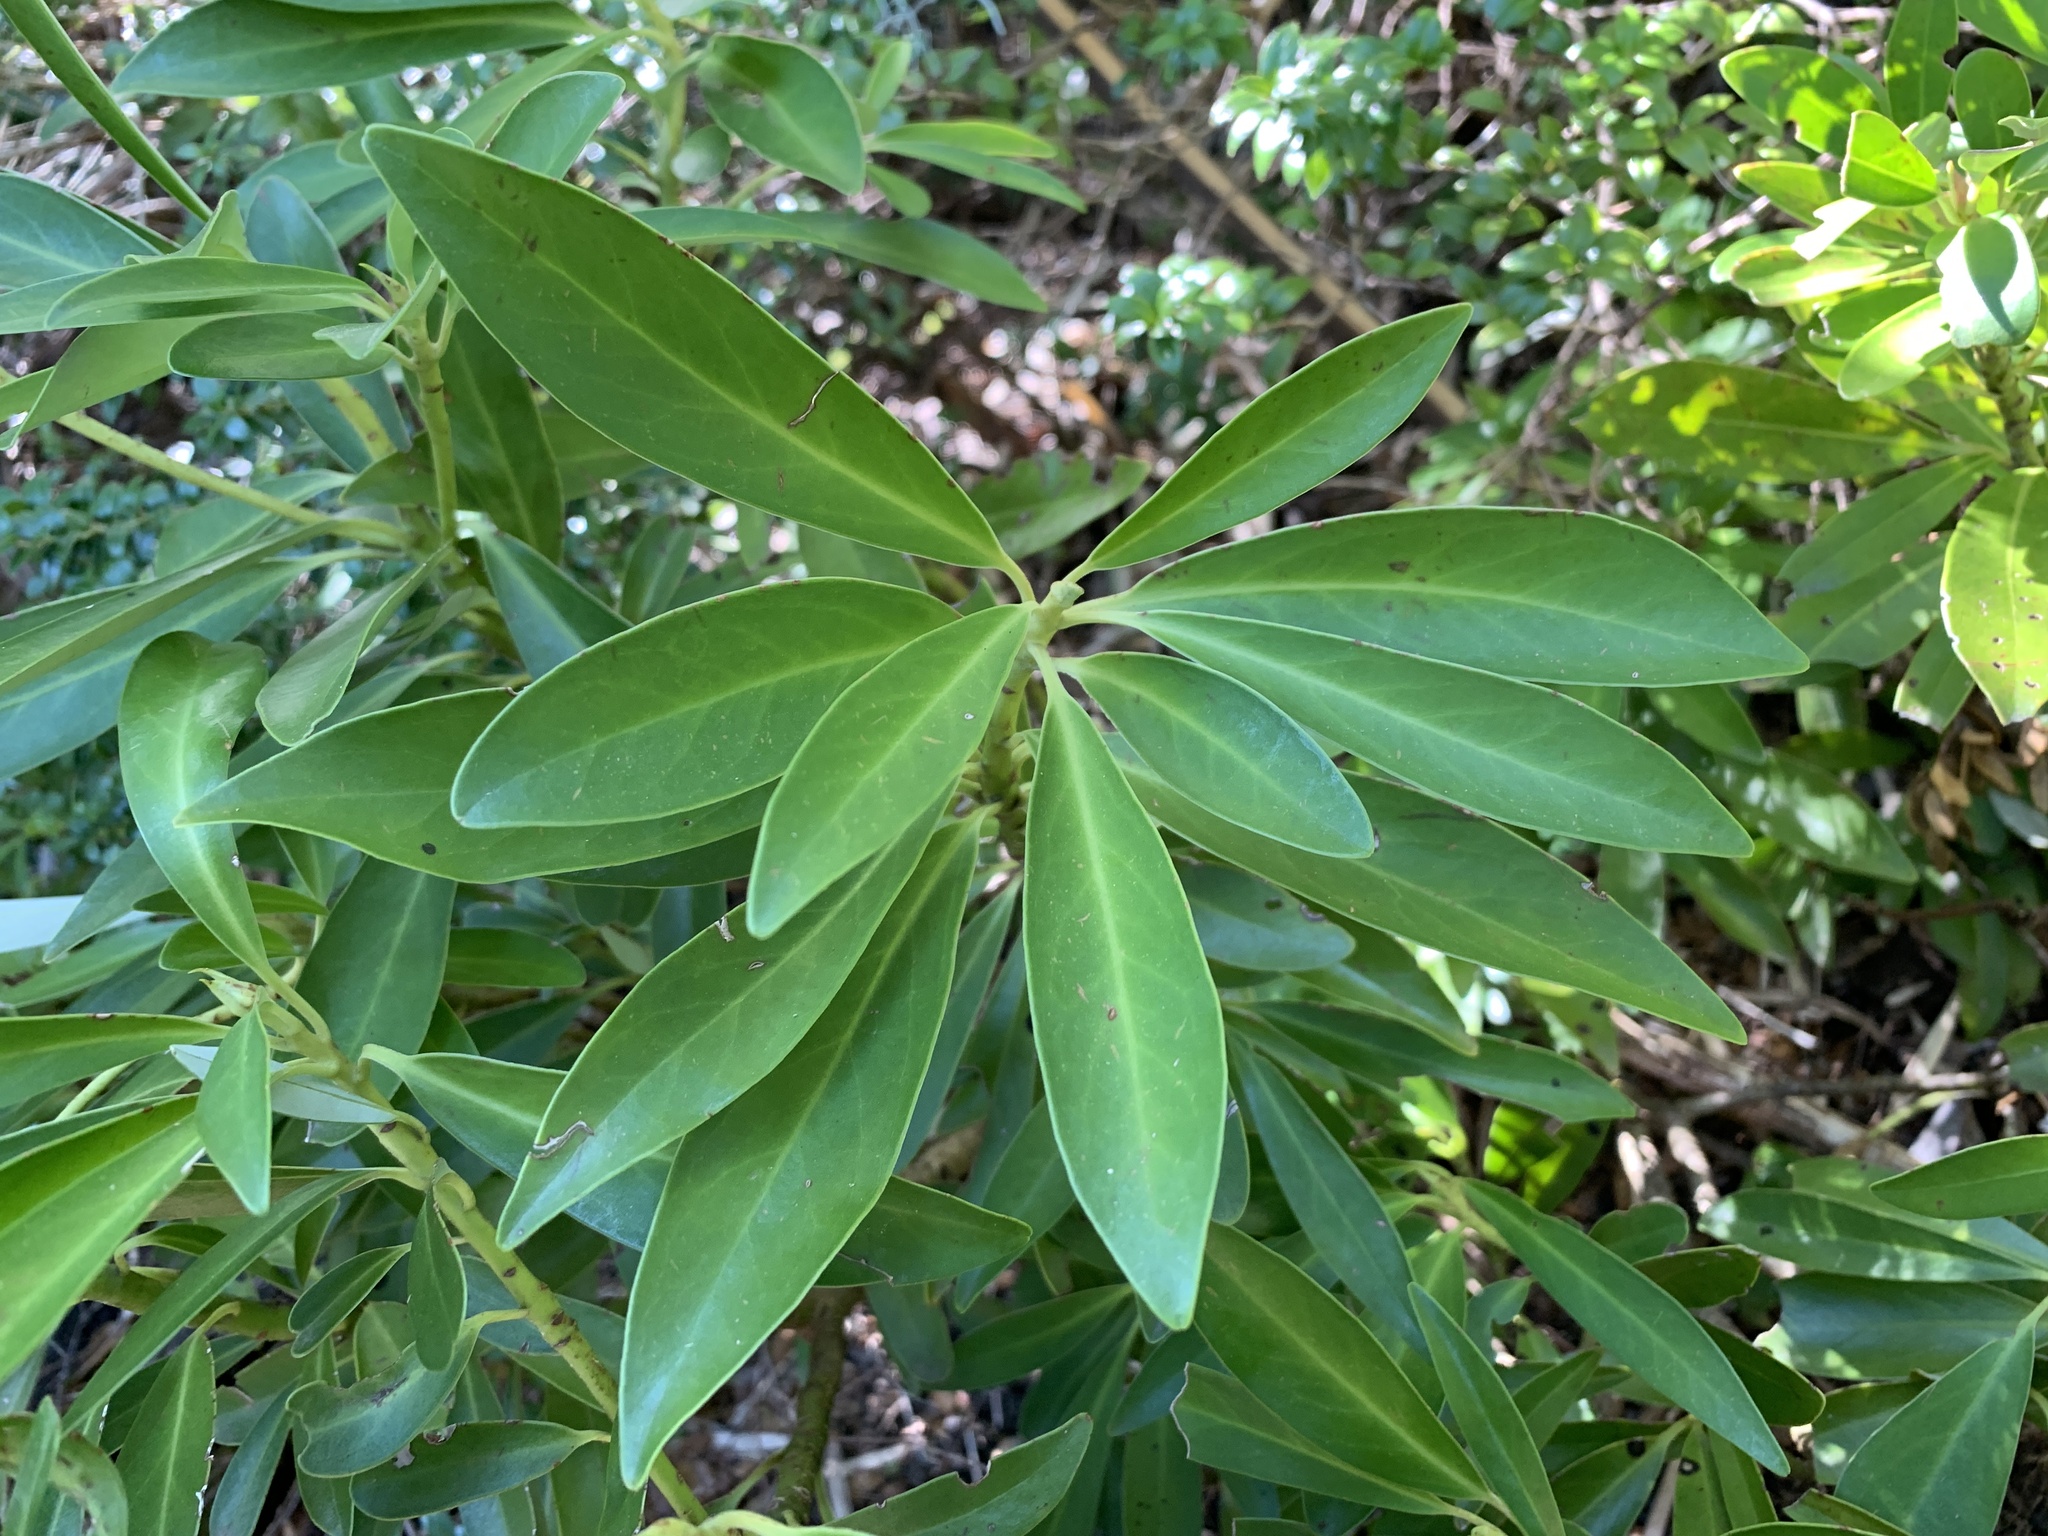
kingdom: Plantae
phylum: Tracheophyta
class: Magnoliopsida
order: Canellales
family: Winteraceae
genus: Drimys
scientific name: Drimys andina
